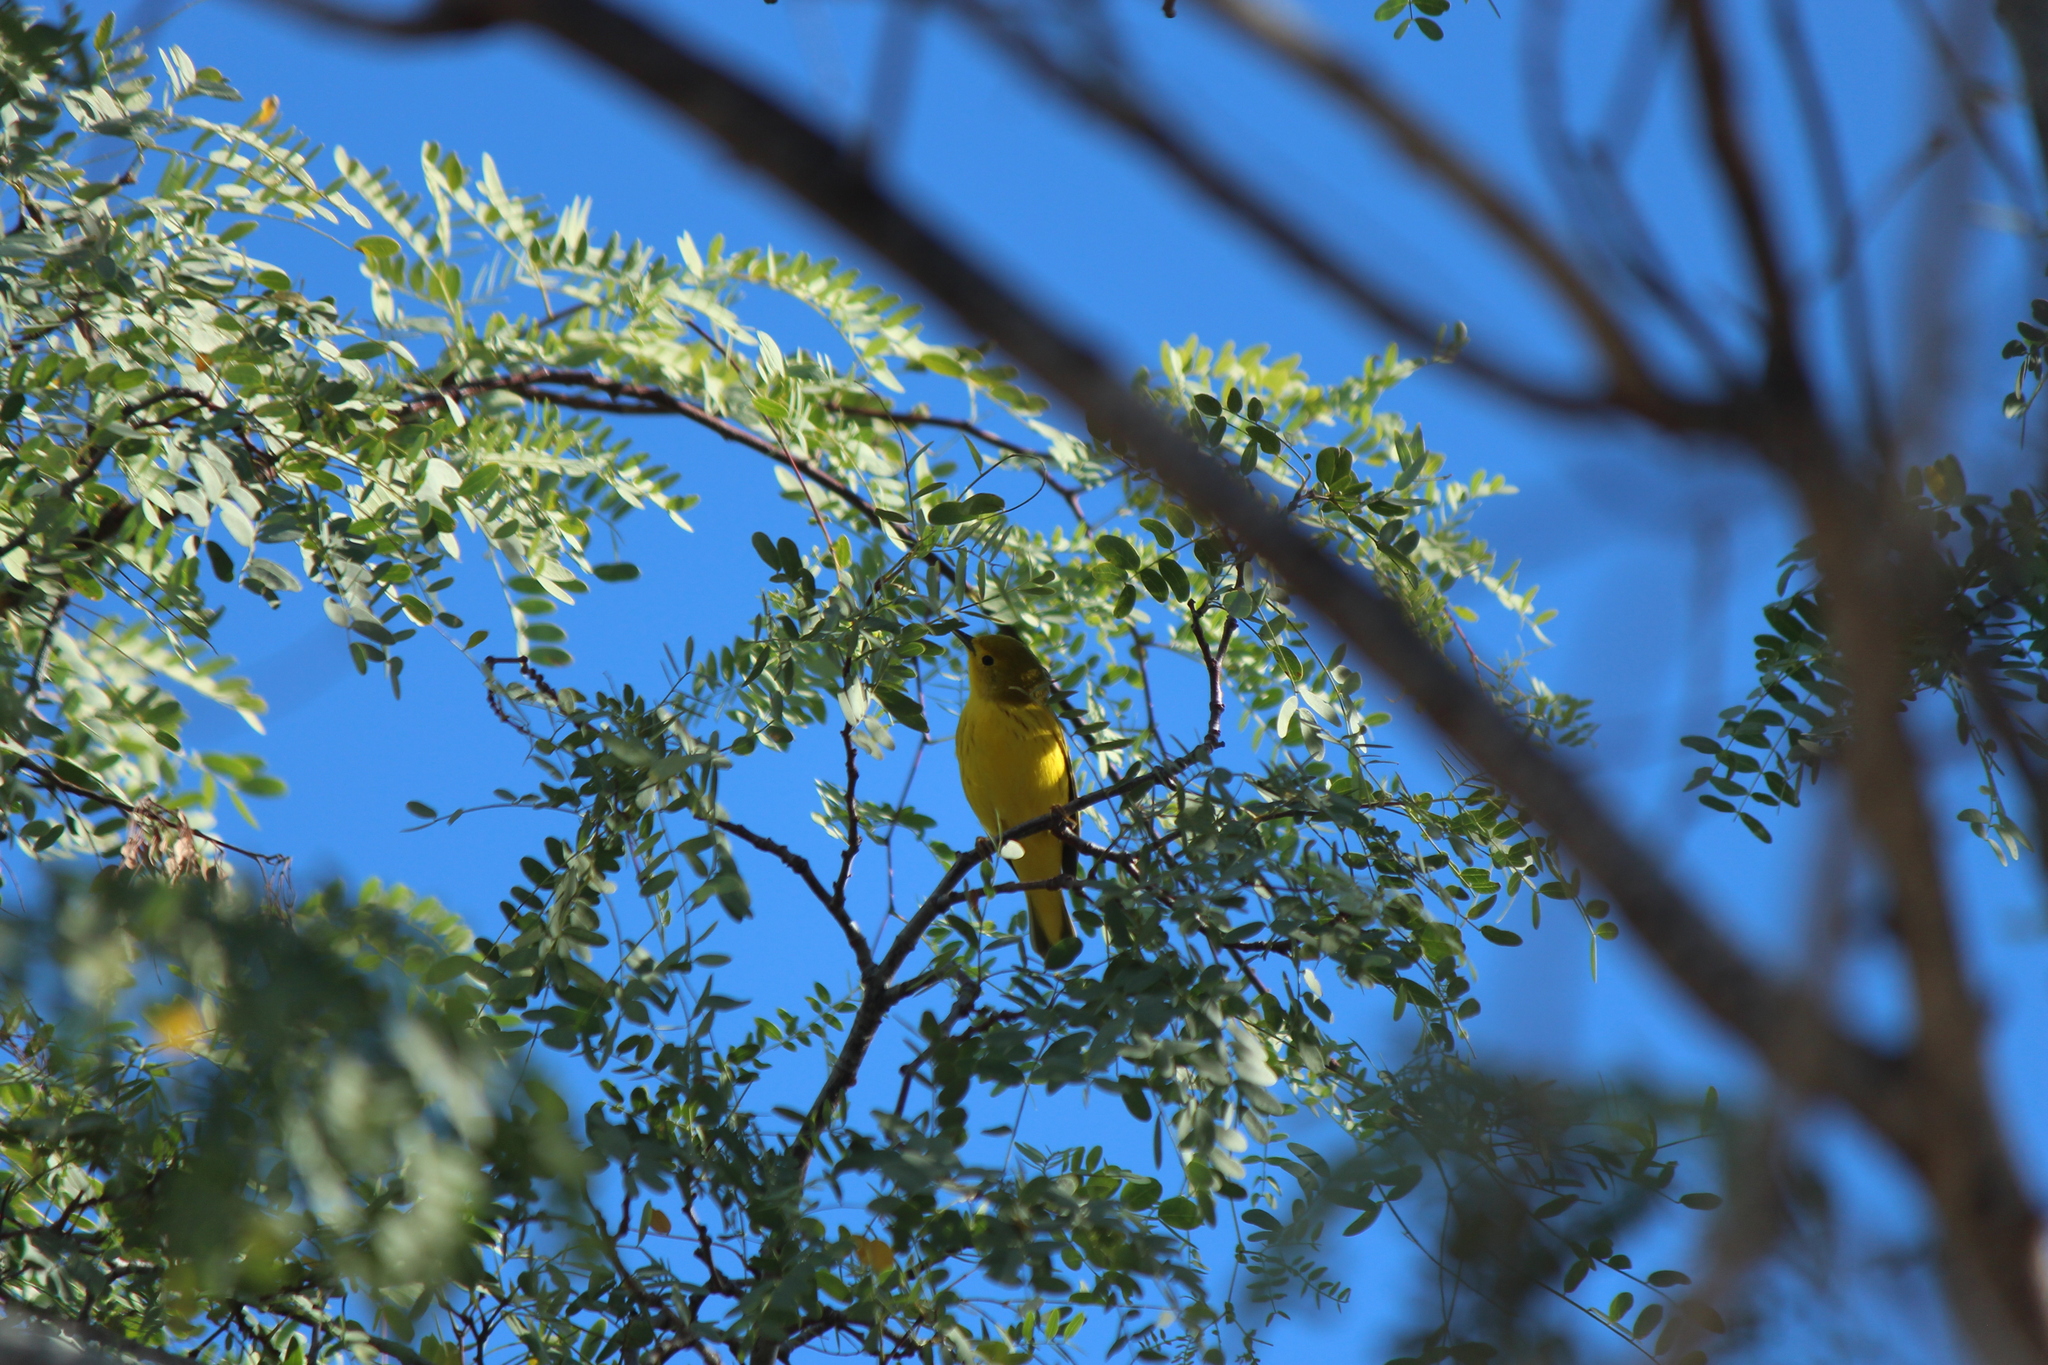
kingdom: Animalia
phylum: Chordata
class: Aves
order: Passeriformes
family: Parulidae
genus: Setophaga
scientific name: Setophaga petechia
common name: Yellow warbler
